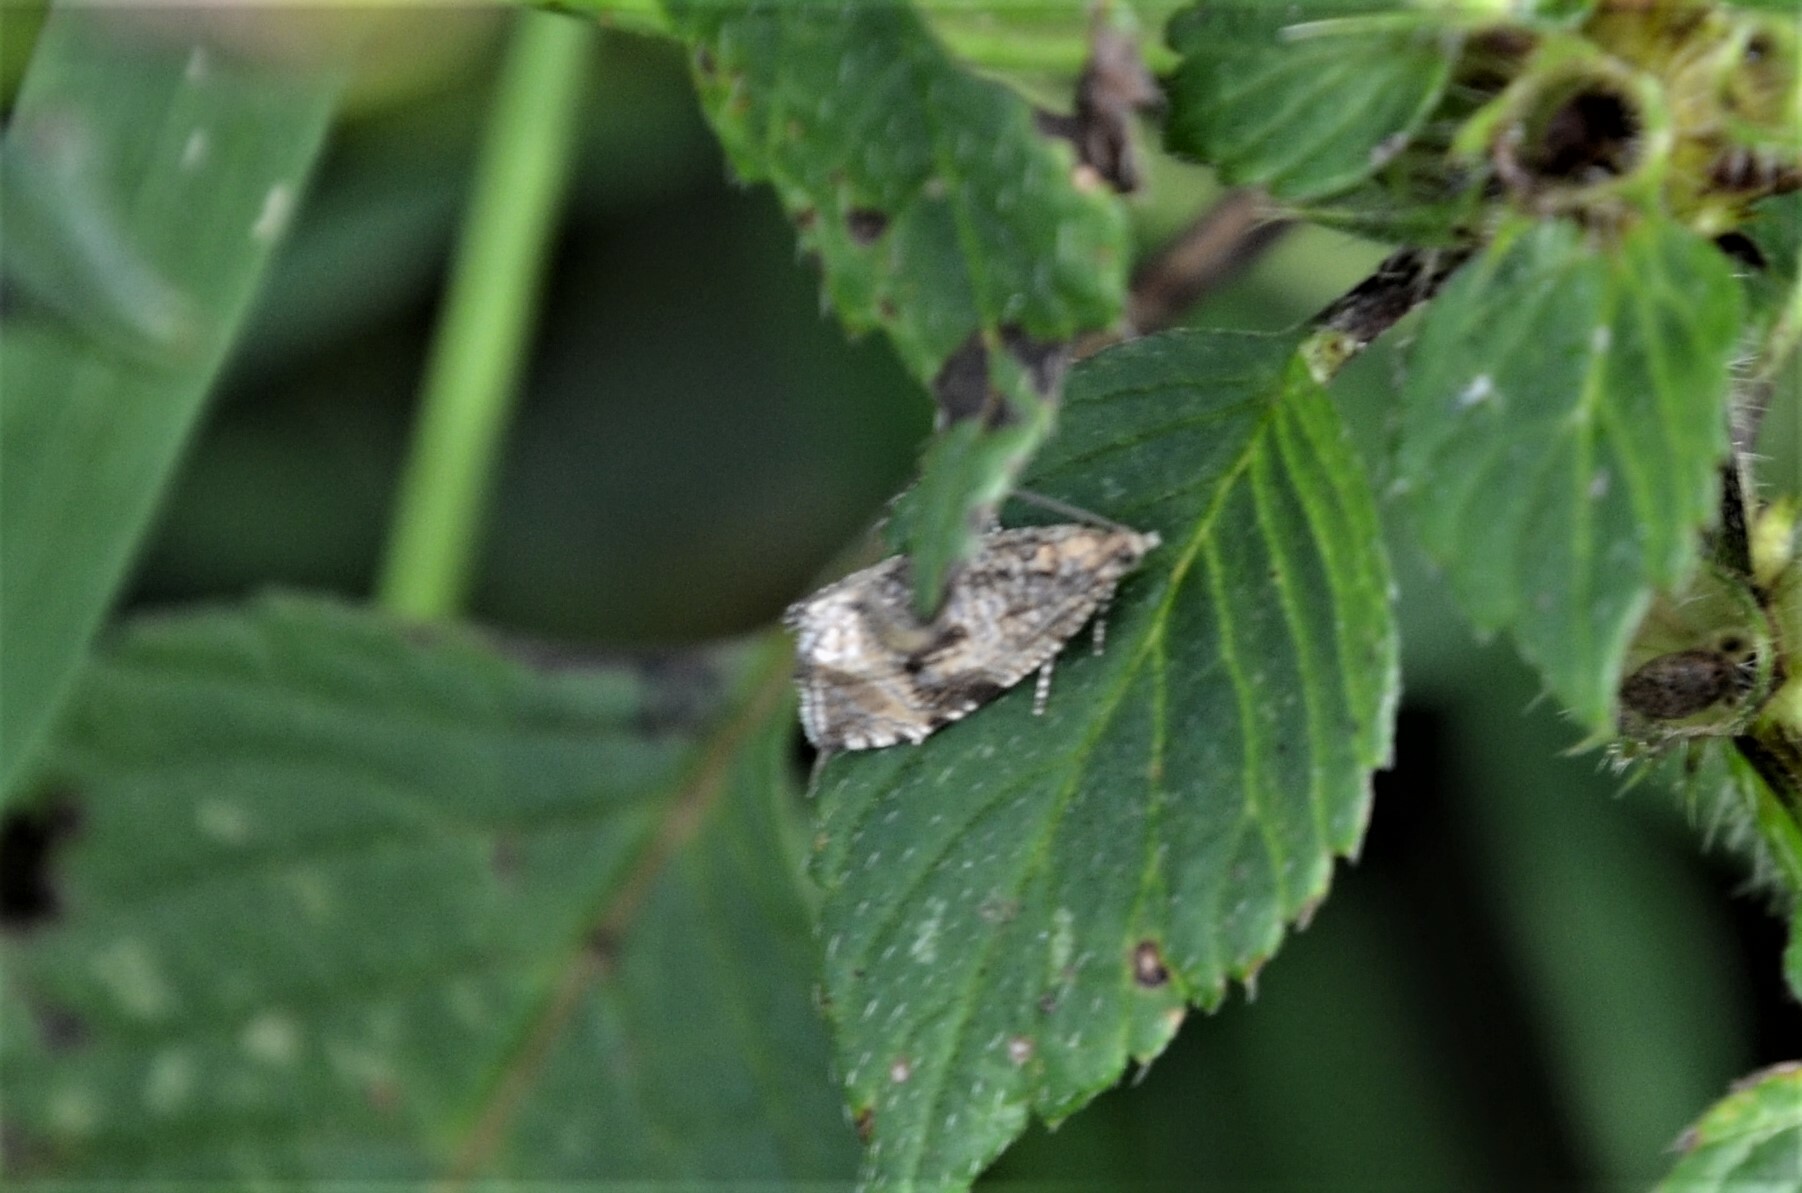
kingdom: Animalia
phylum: Arthropoda
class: Insecta
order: Lepidoptera
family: Tortricidae
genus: Syricoris
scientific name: Syricoris lacunana
